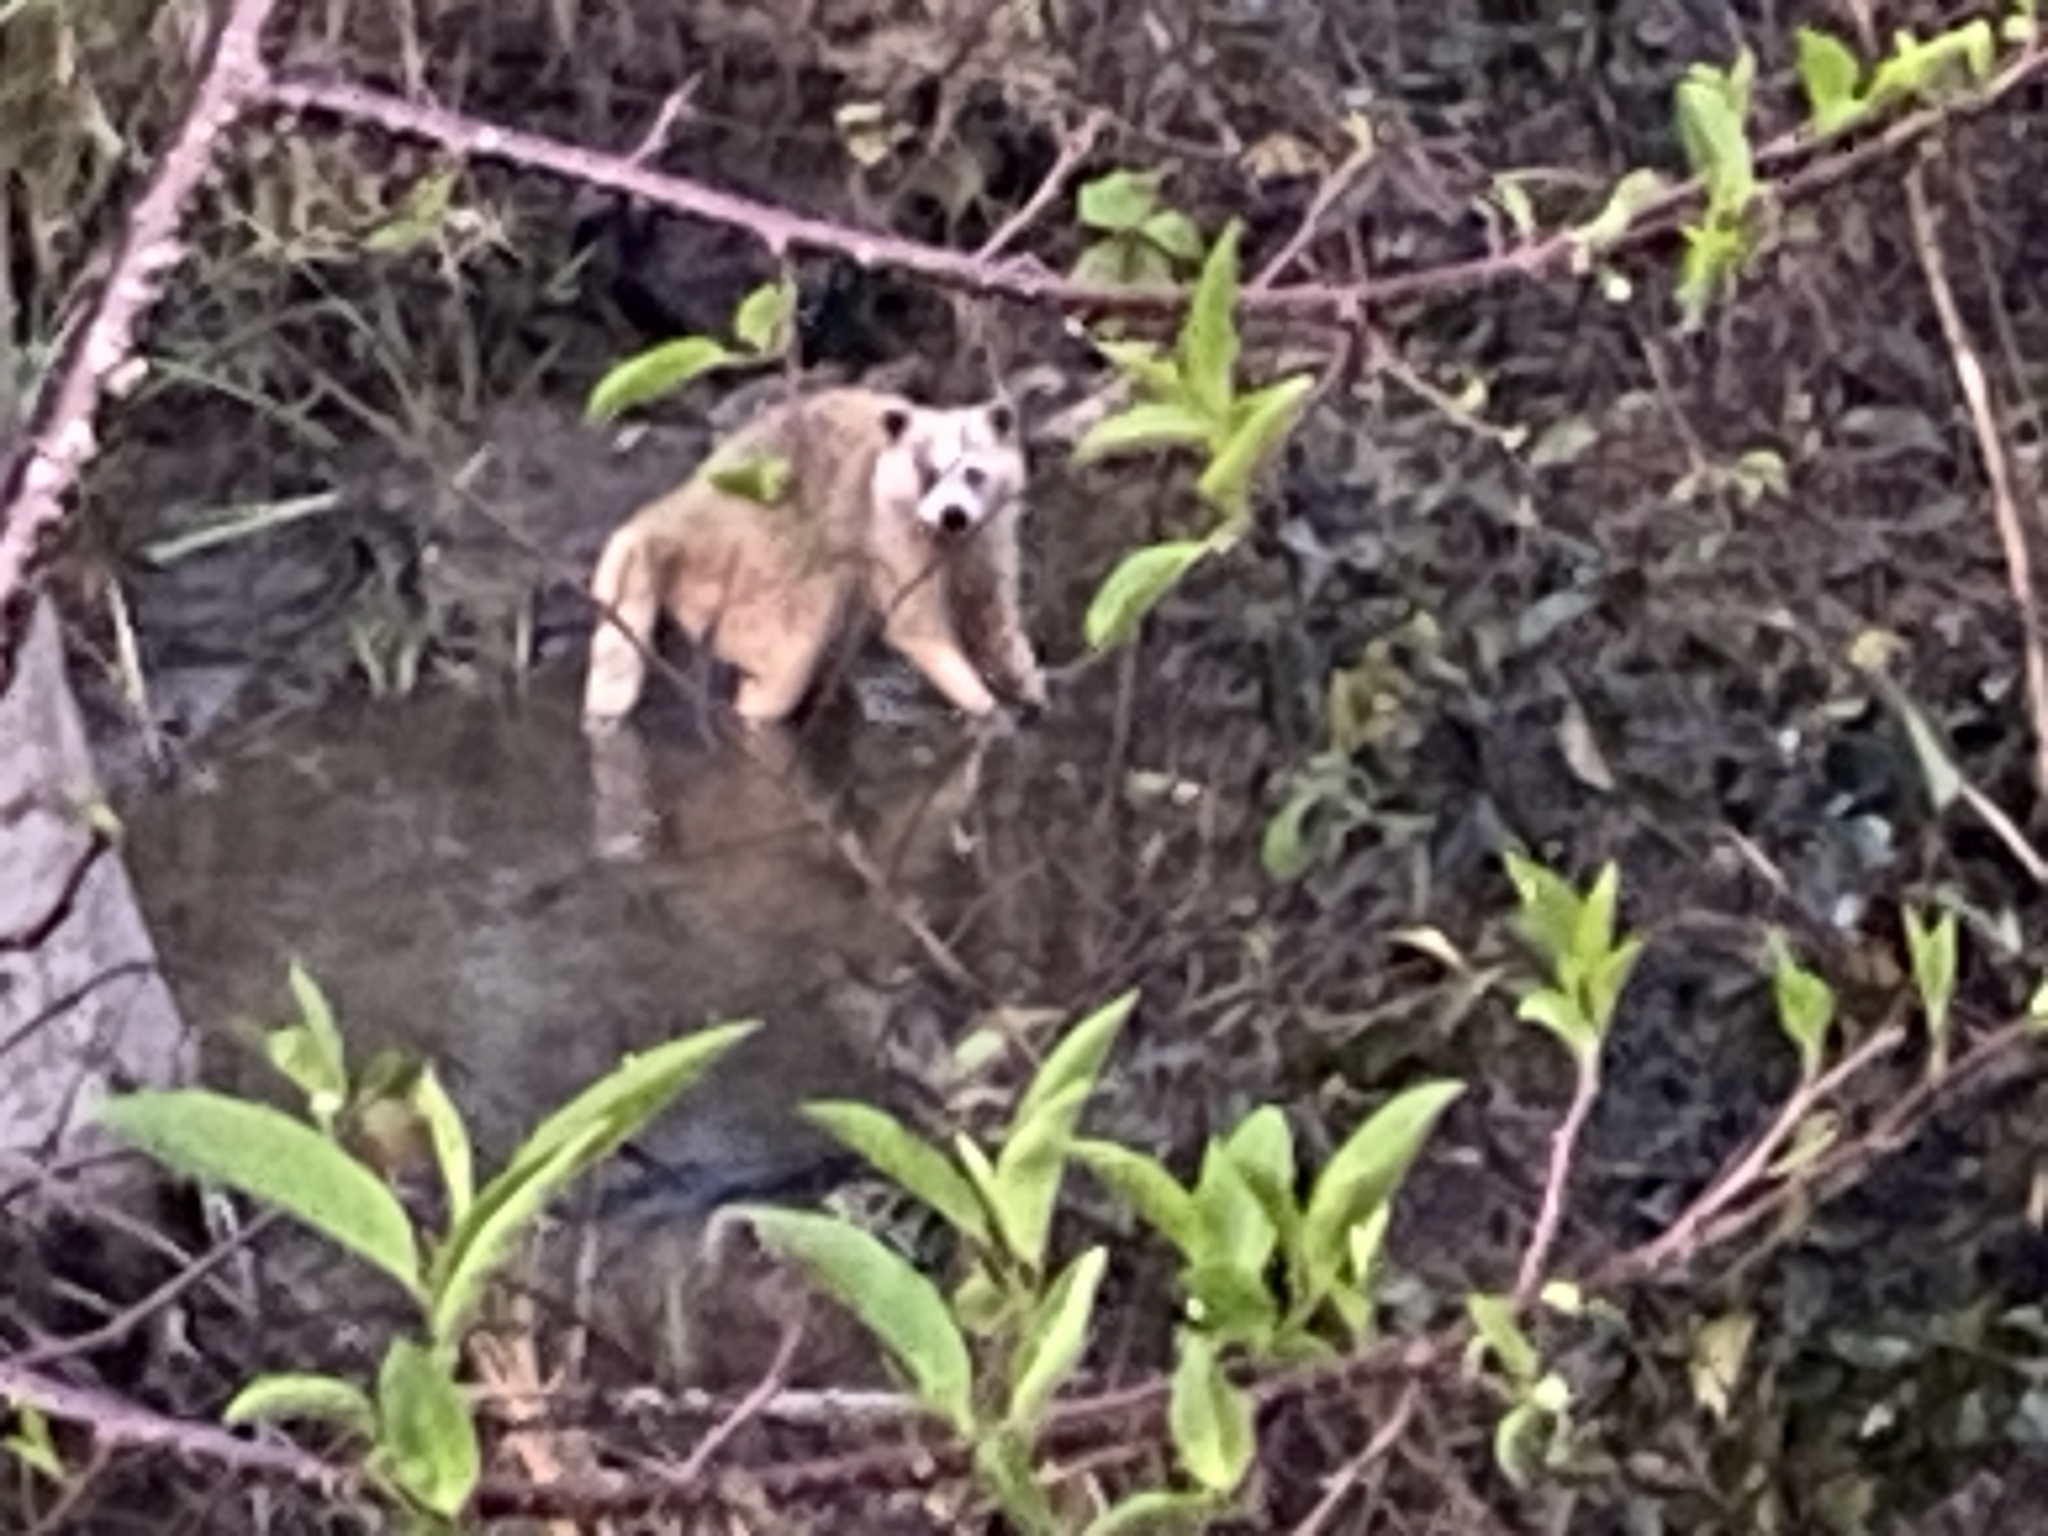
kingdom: Animalia
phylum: Chordata
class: Mammalia
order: Carnivora
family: Procyonidae
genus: Procyon
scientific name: Procyon lotor
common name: Raccoon
